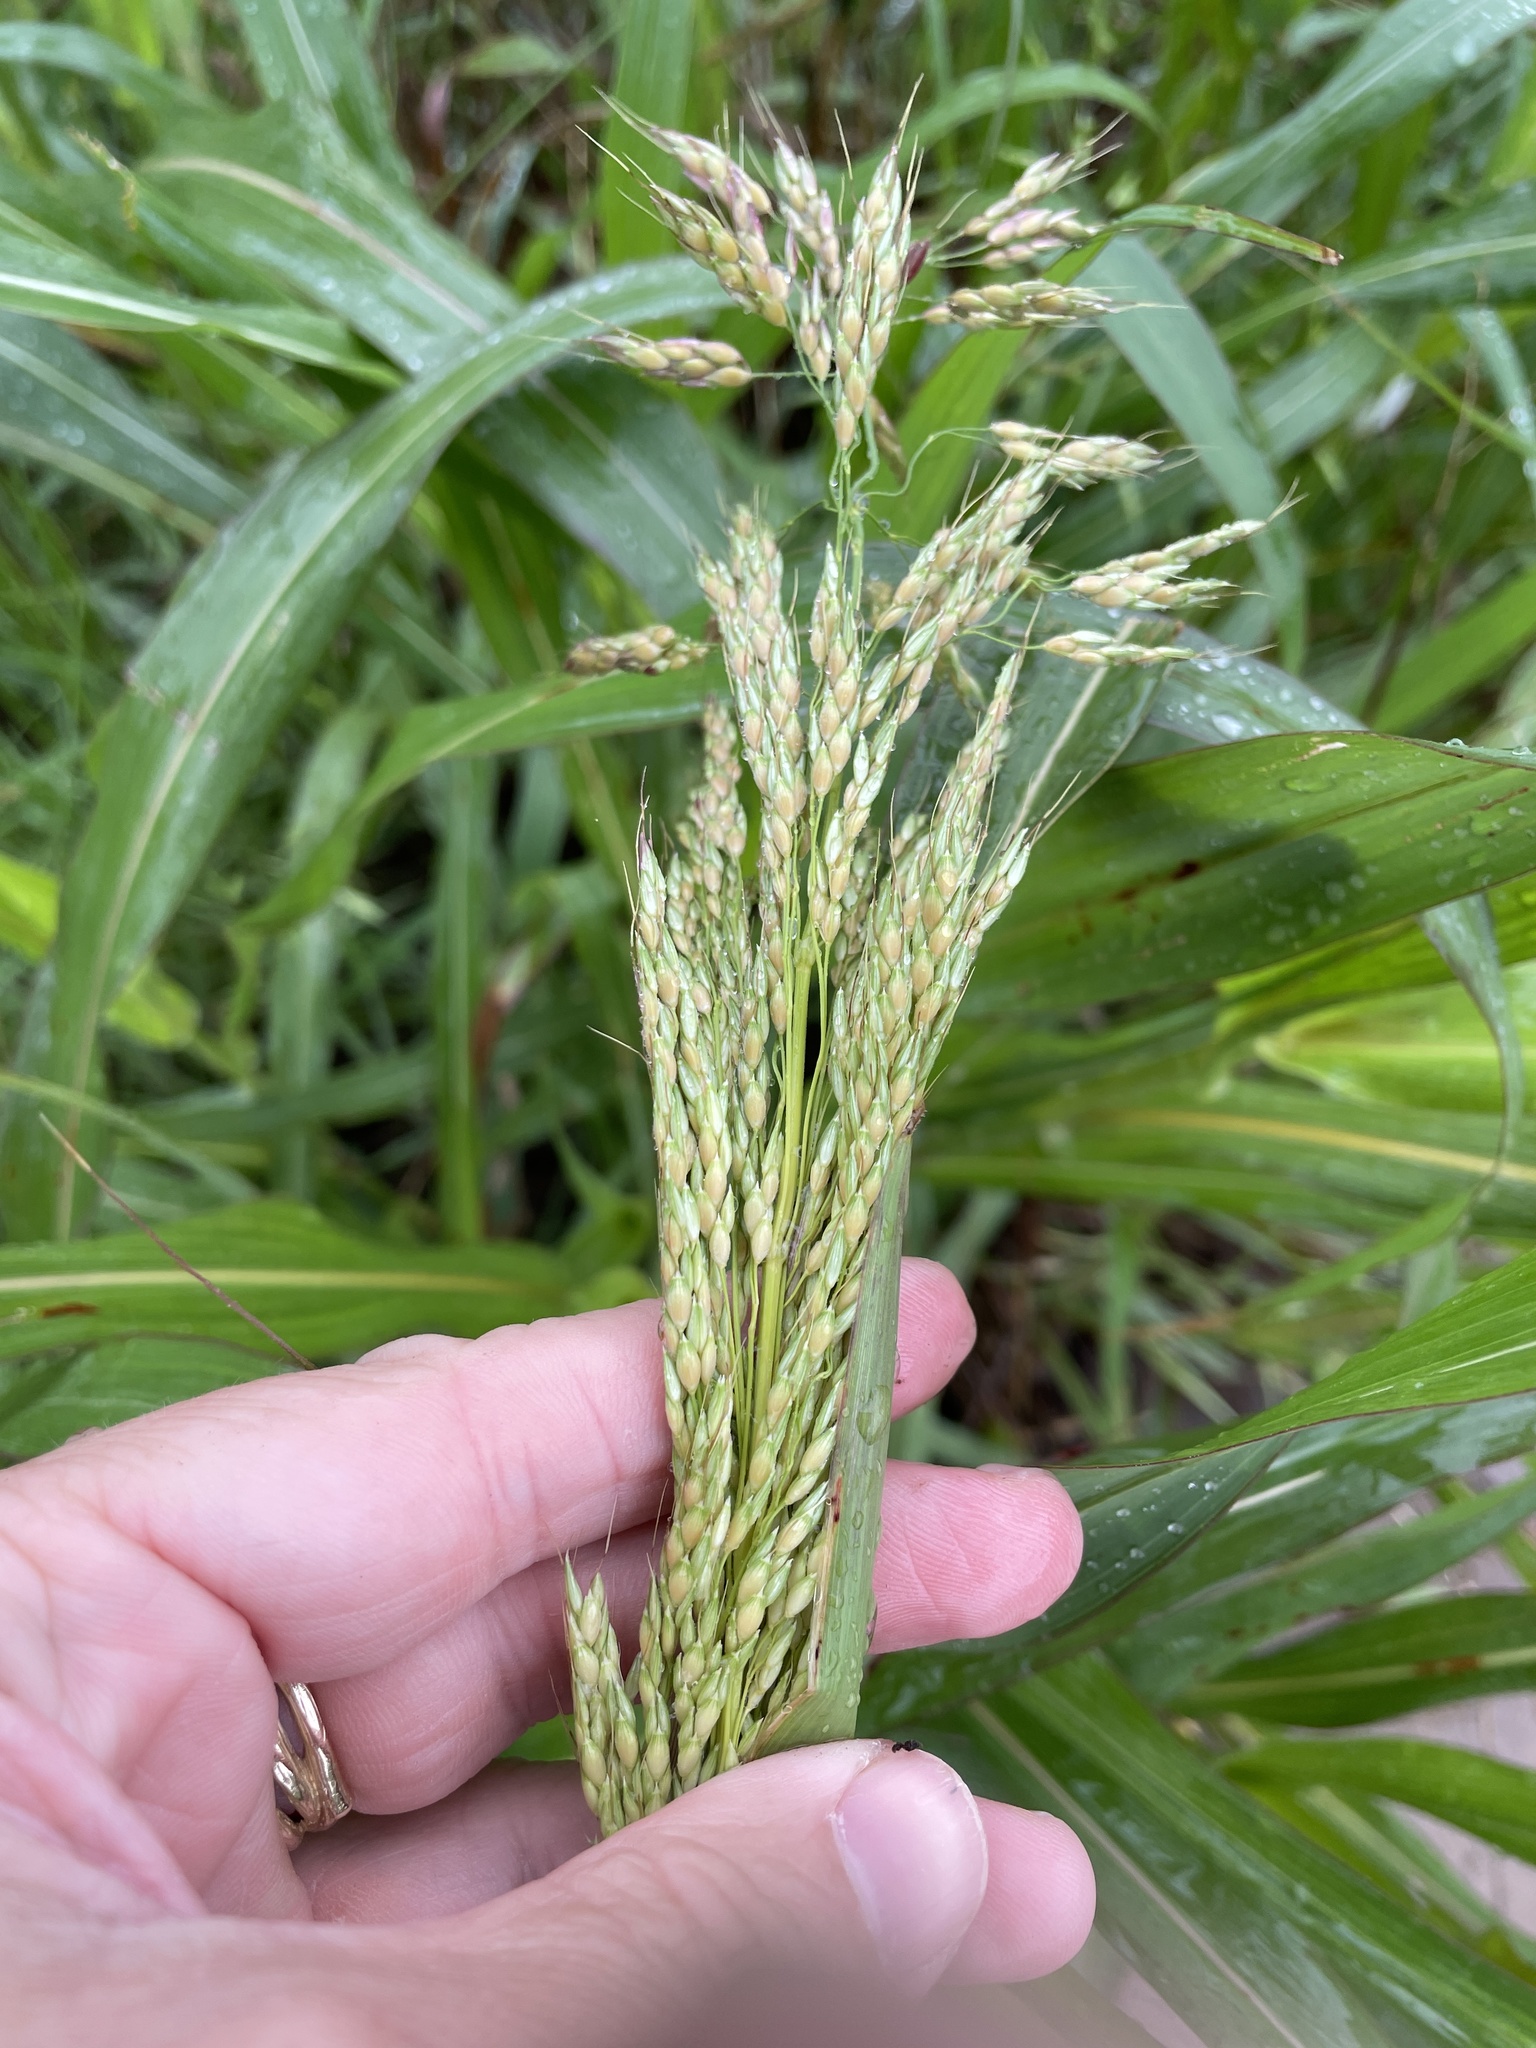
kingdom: Plantae
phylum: Tracheophyta
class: Liliopsida
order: Poales
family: Poaceae
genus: Sorghum
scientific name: Sorghum halepense
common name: Johnson-grass
